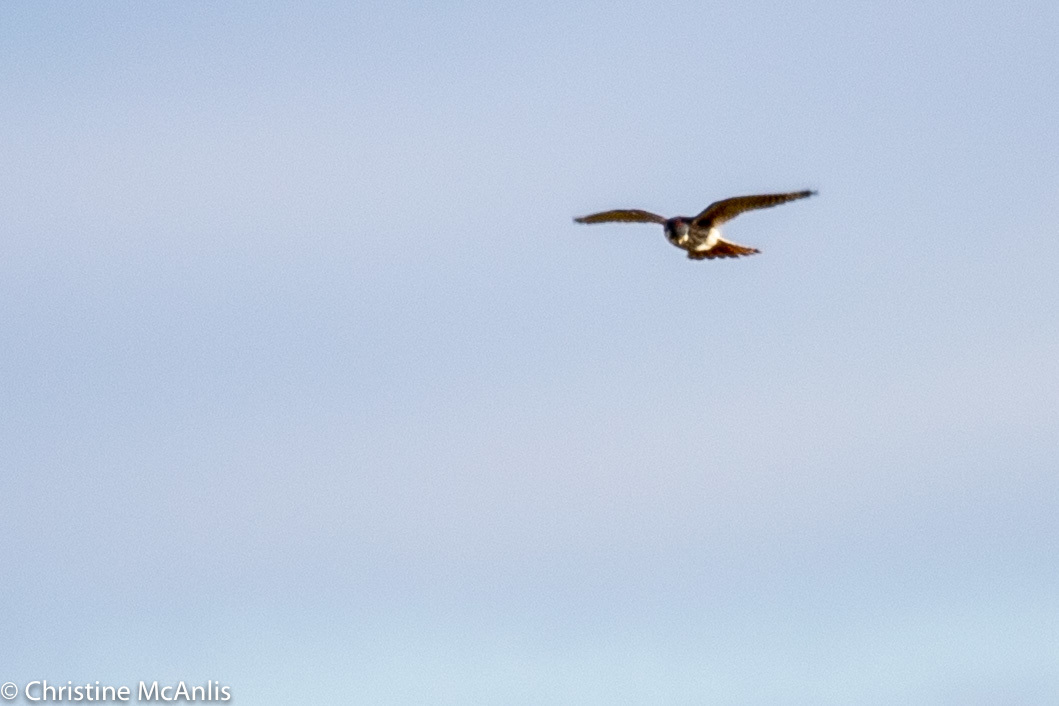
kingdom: Animalia
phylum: Chordata
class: Aves
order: Falconiformes
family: Falconidae
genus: Falco
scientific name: Falco sparverius
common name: American kestrel
